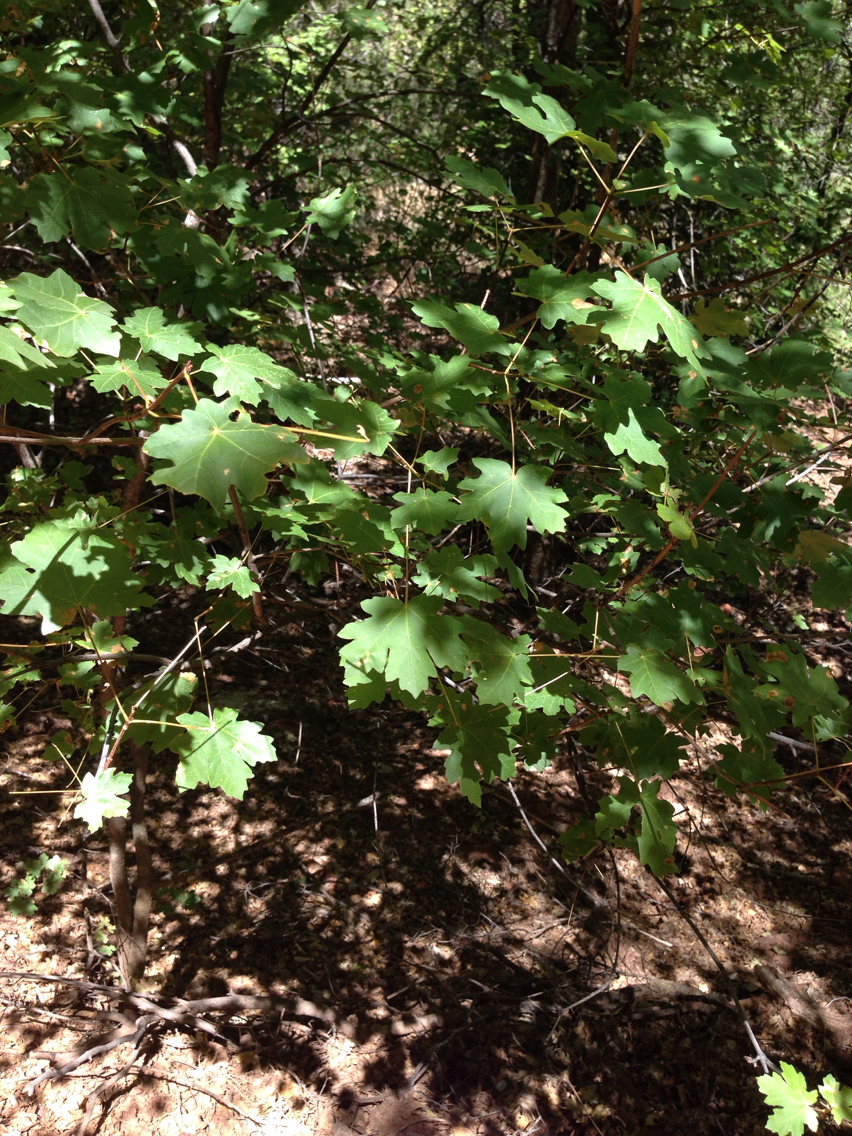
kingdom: Plantae
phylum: Tracheophyta
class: Magnoliopsida
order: Sapindales
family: Sapindaceae
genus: Acer
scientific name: Acer grandidentatum
